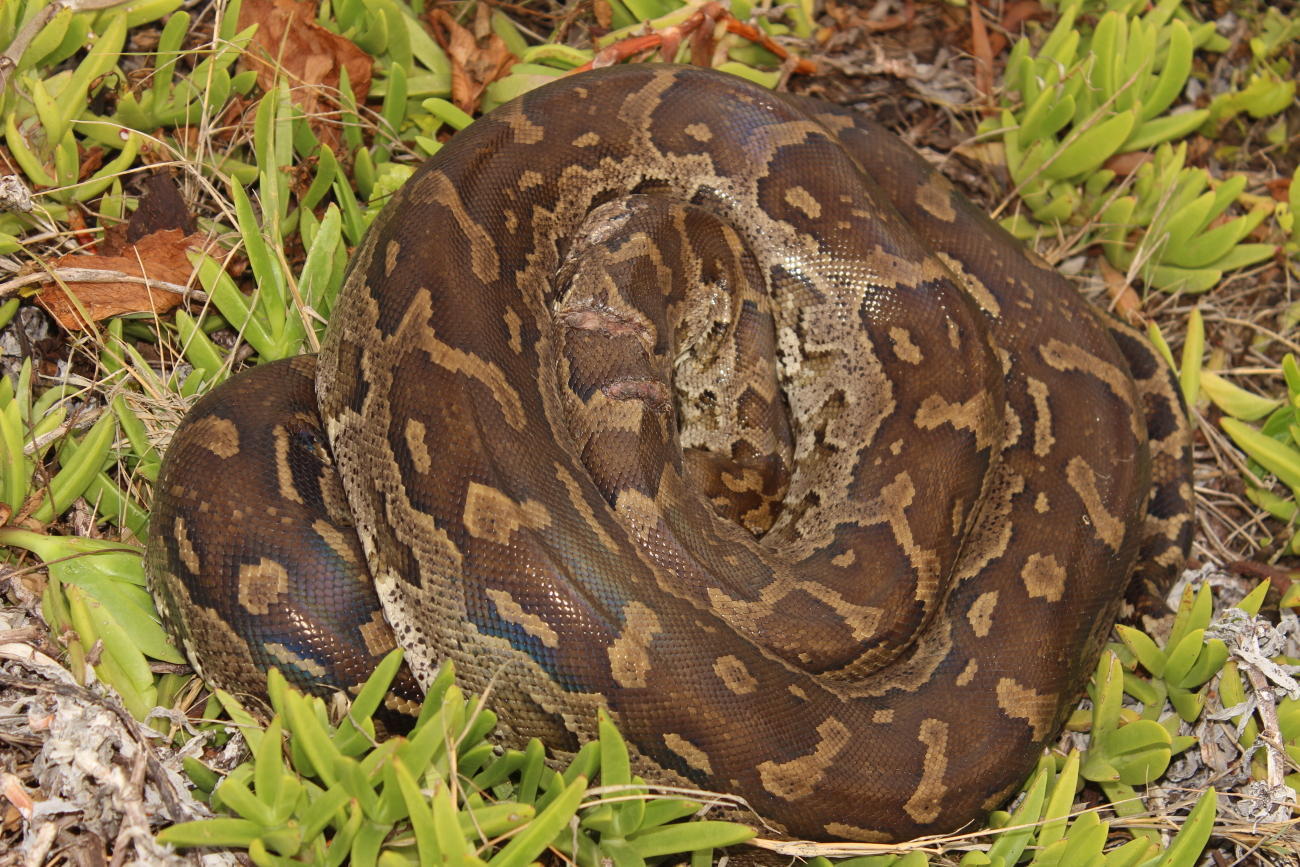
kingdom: Animalia
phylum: Chordata
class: Squamata
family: Pythonidae
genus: Python
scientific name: Python natalensis
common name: Southern african rock python
